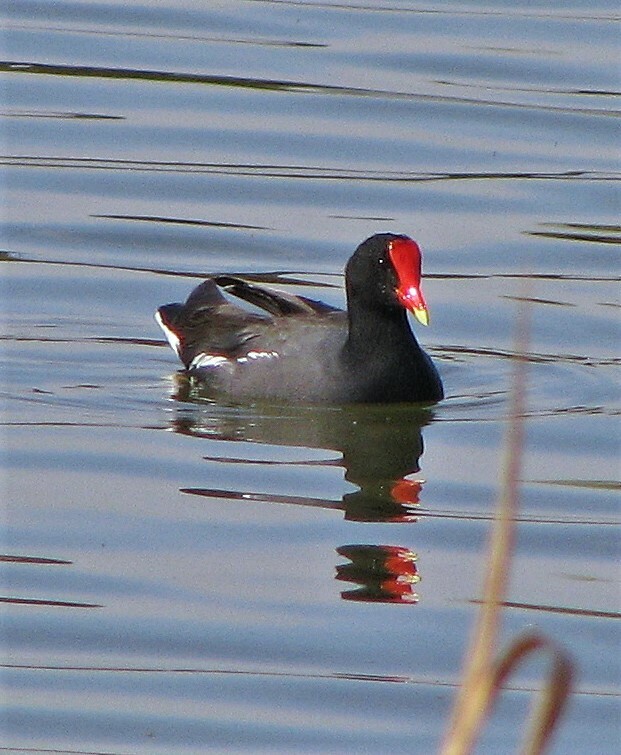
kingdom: Animalia
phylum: Chordata
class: Aves
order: Gruiformes
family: Rallidae
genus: Gallinula
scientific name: Gallinula chloropus
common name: Common moorhen
